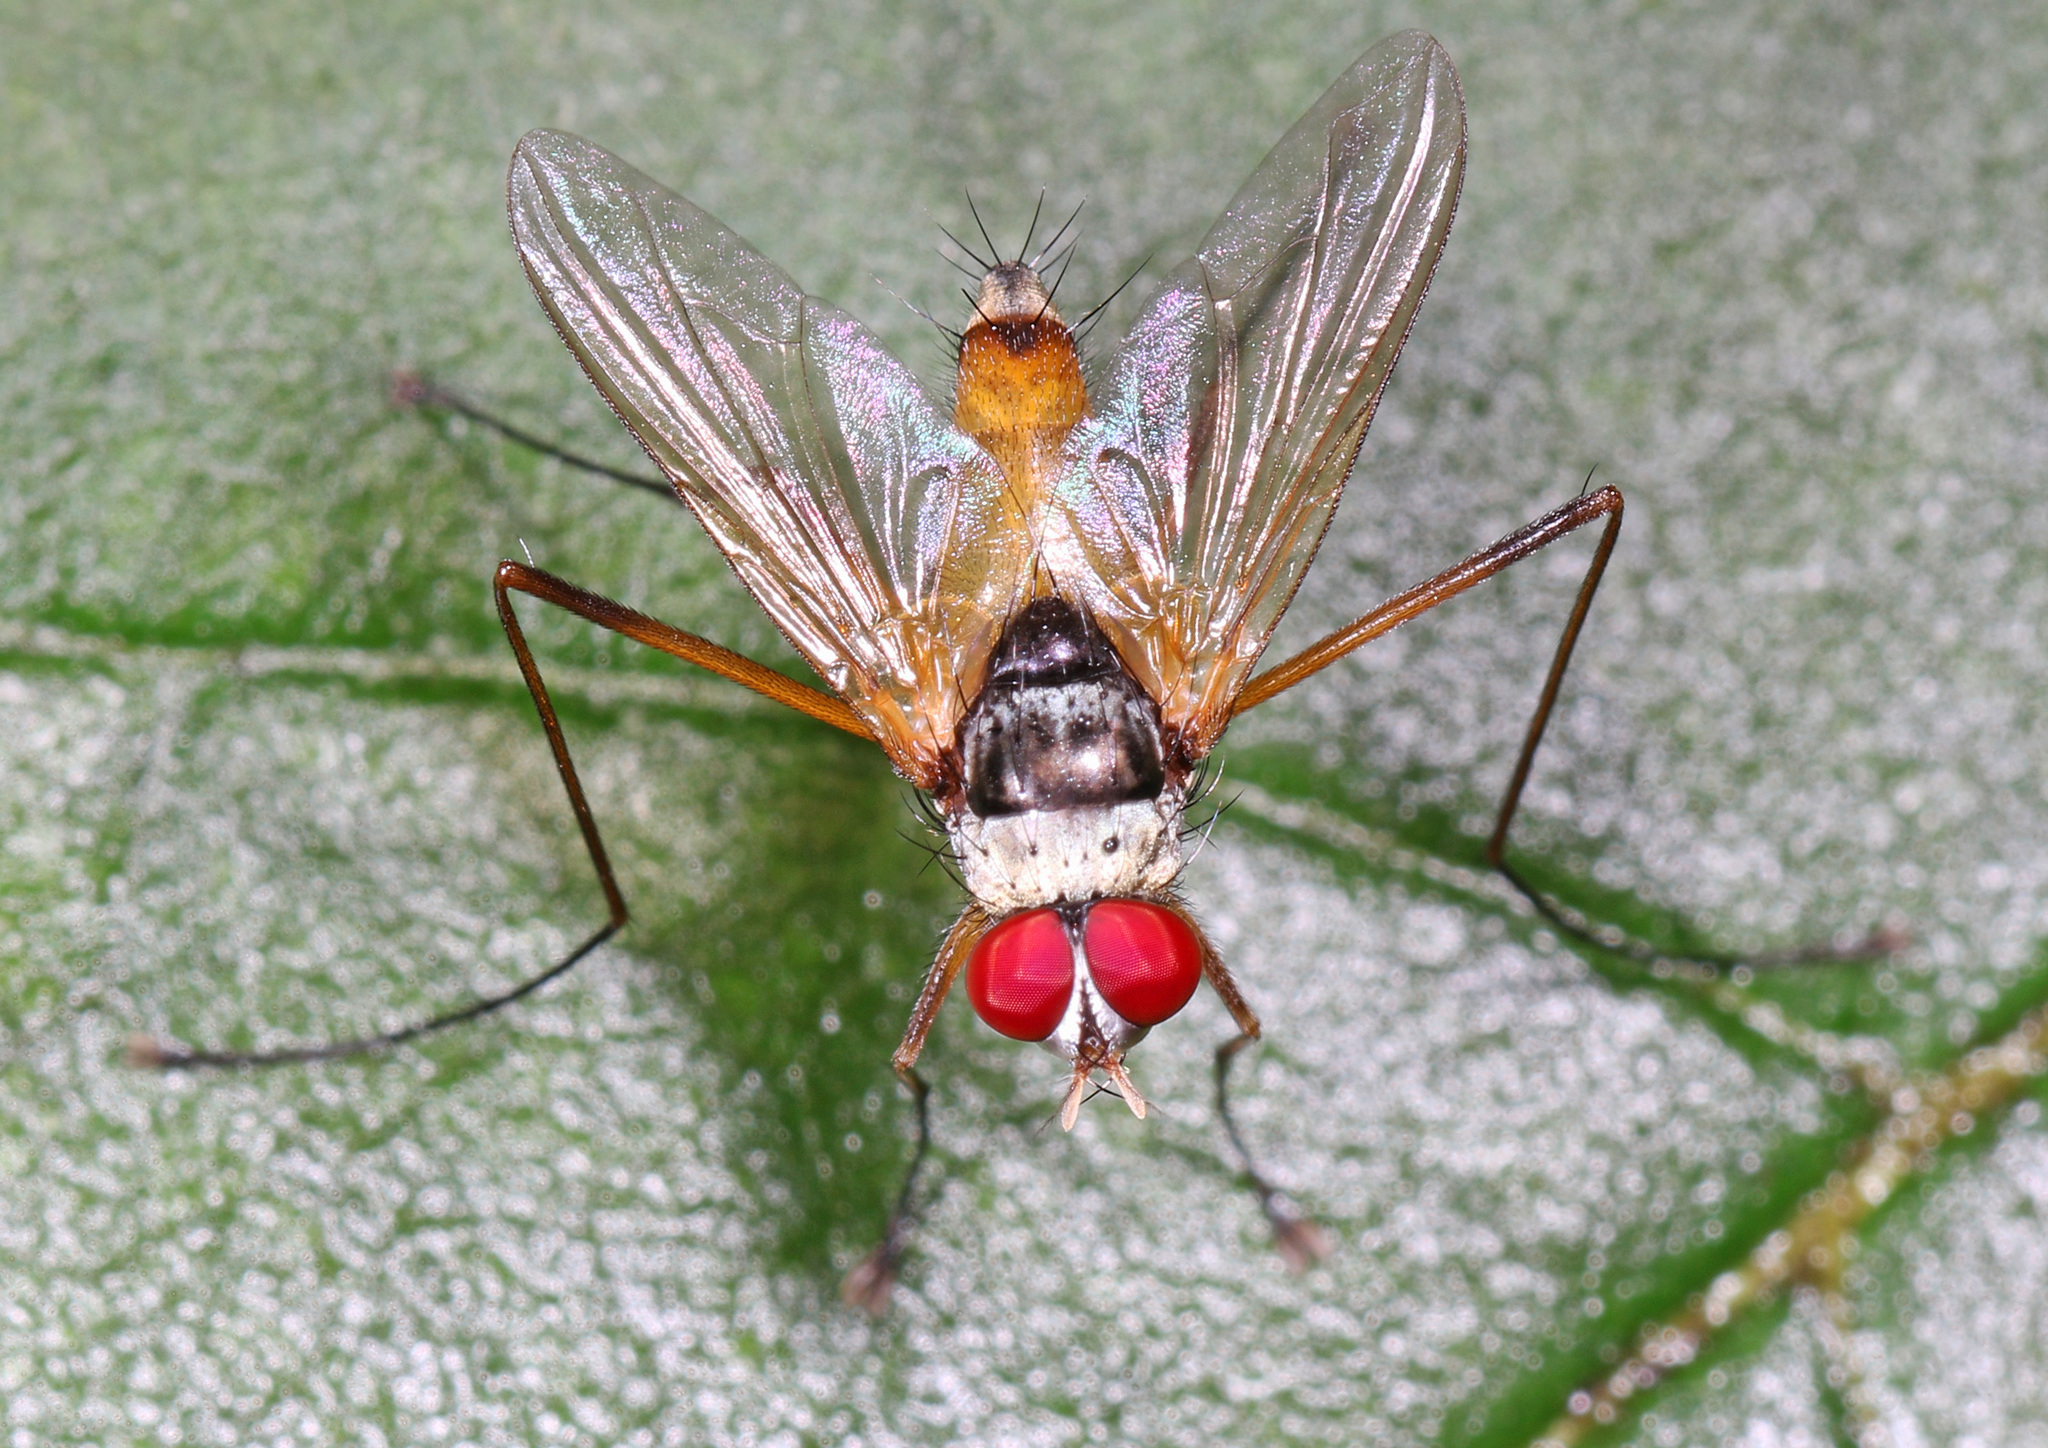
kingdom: Animalia
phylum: Arthropoda
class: Insecta
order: Diptera
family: Tachinidae
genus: Cholomyia
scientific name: Cholomyia inaequipes
